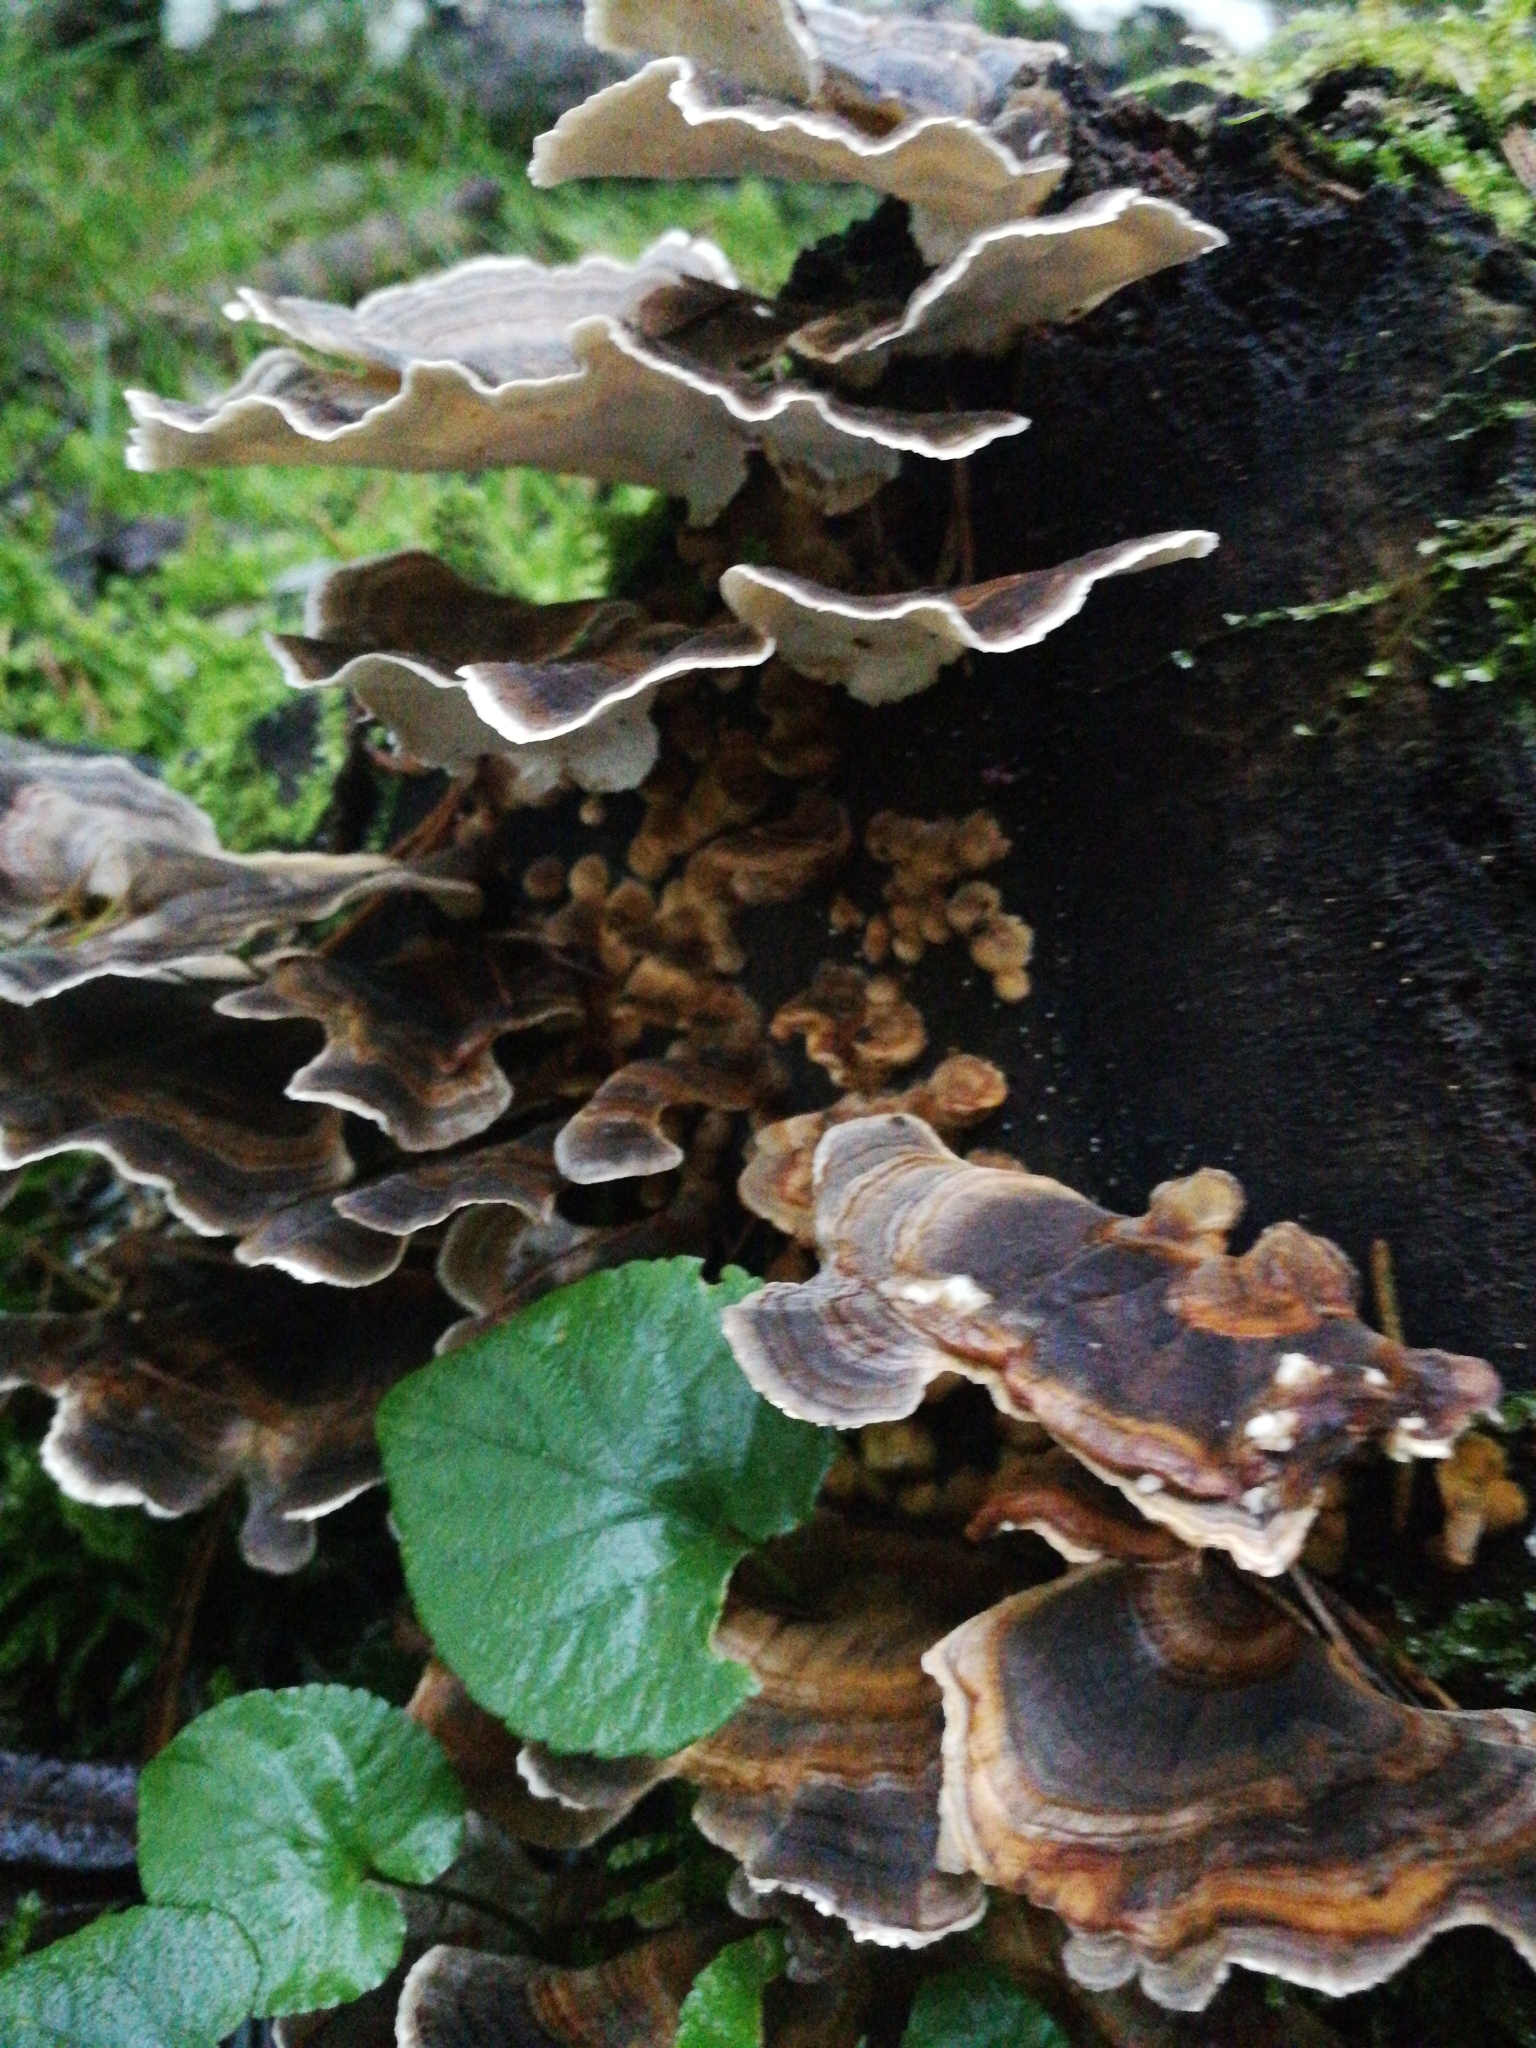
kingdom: Fungi
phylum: Basidiomycota
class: Agaricomycetes
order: Polyporales
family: Polyporaceae
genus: Trametes
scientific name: Trametes versicolor
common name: Turkeytail
